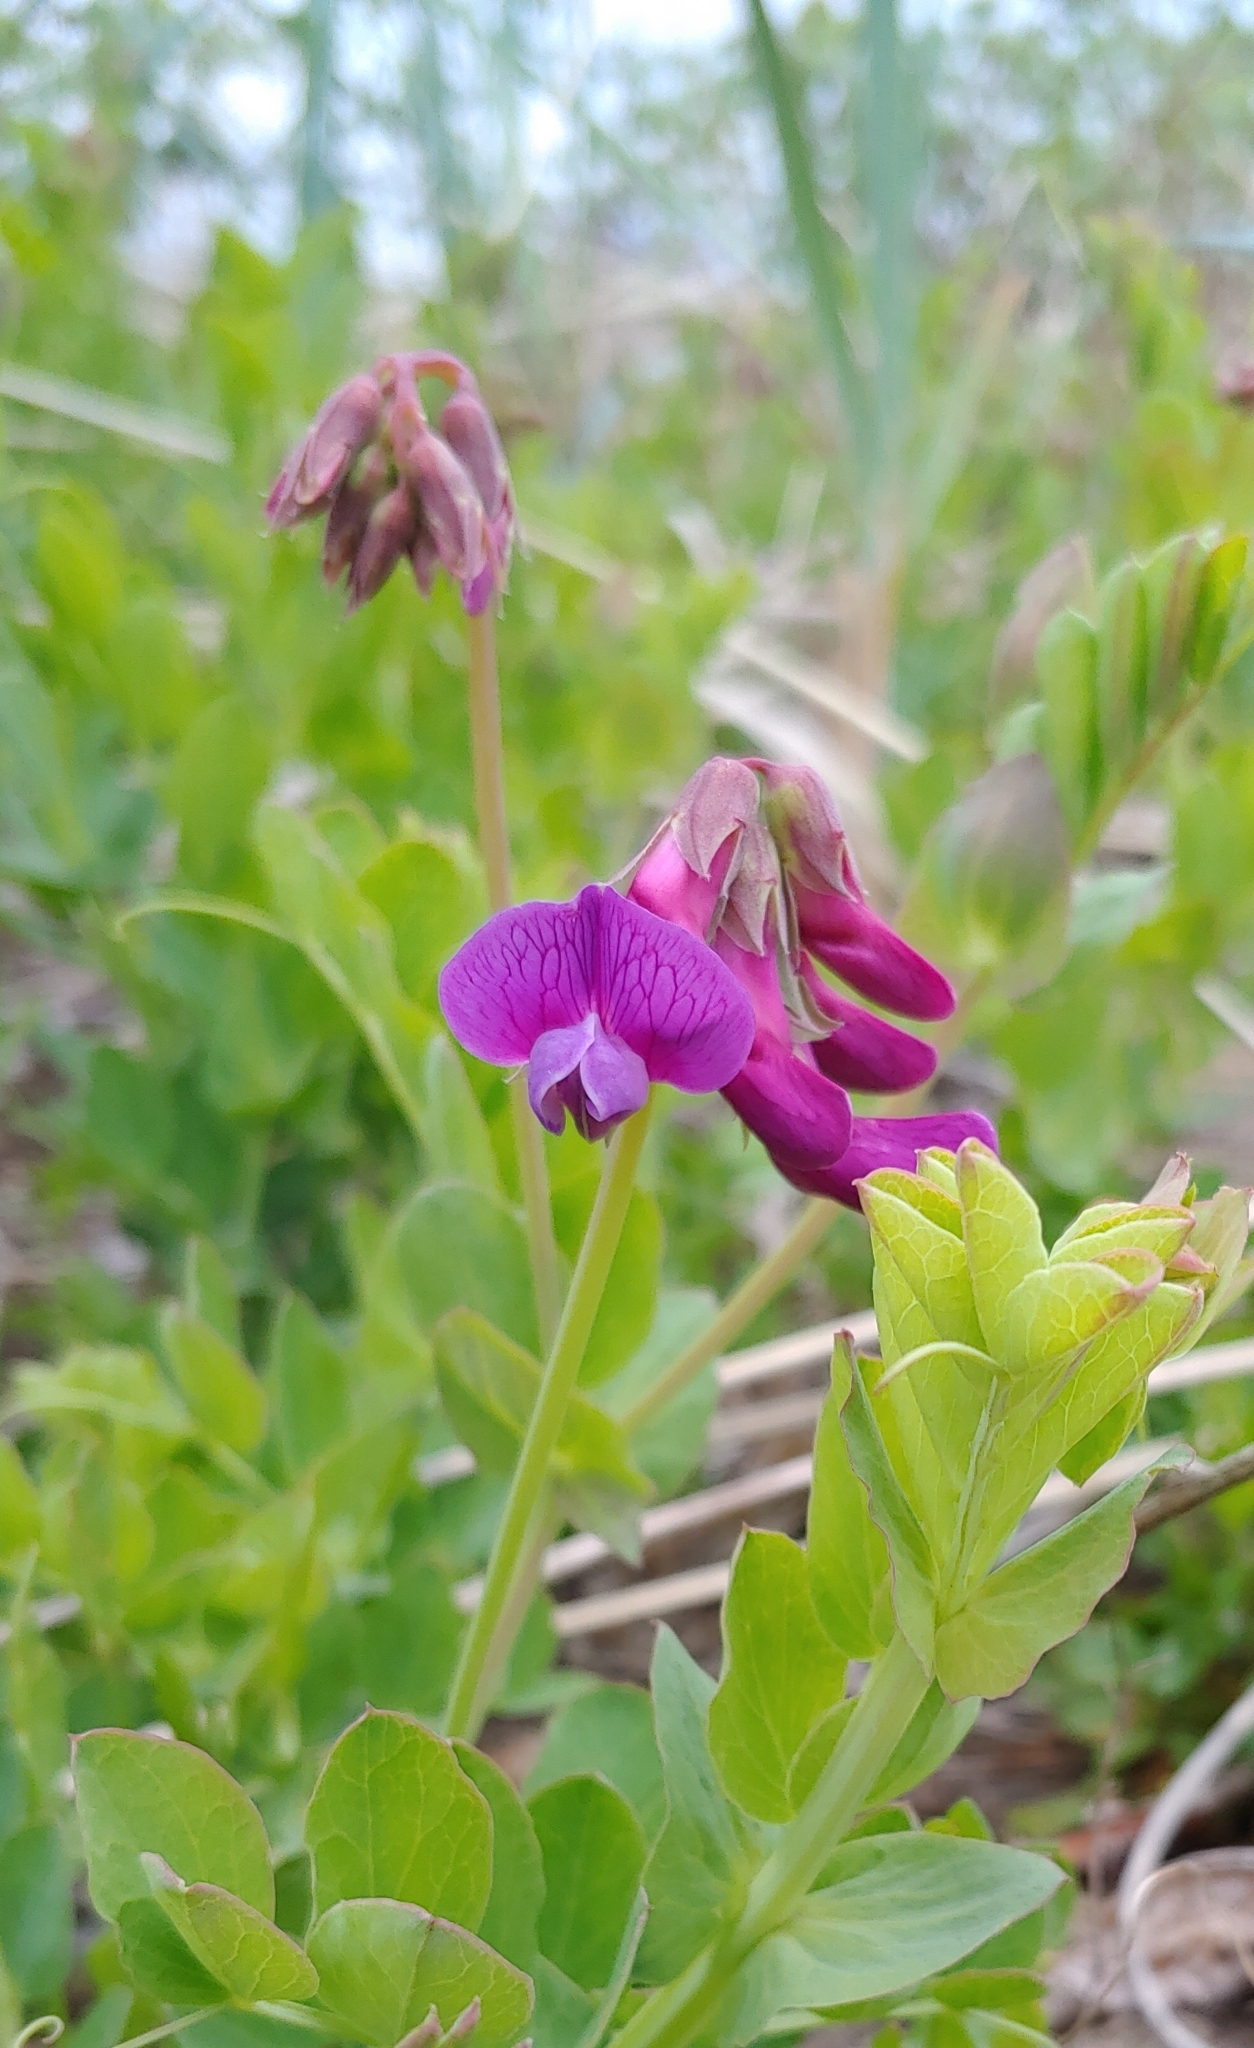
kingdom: Plantae
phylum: Tracheophyta
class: Magnoliopsida
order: Fabales
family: Fabaceae
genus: Lathyrus
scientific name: Lathyrus japonicus
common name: Sea pea
